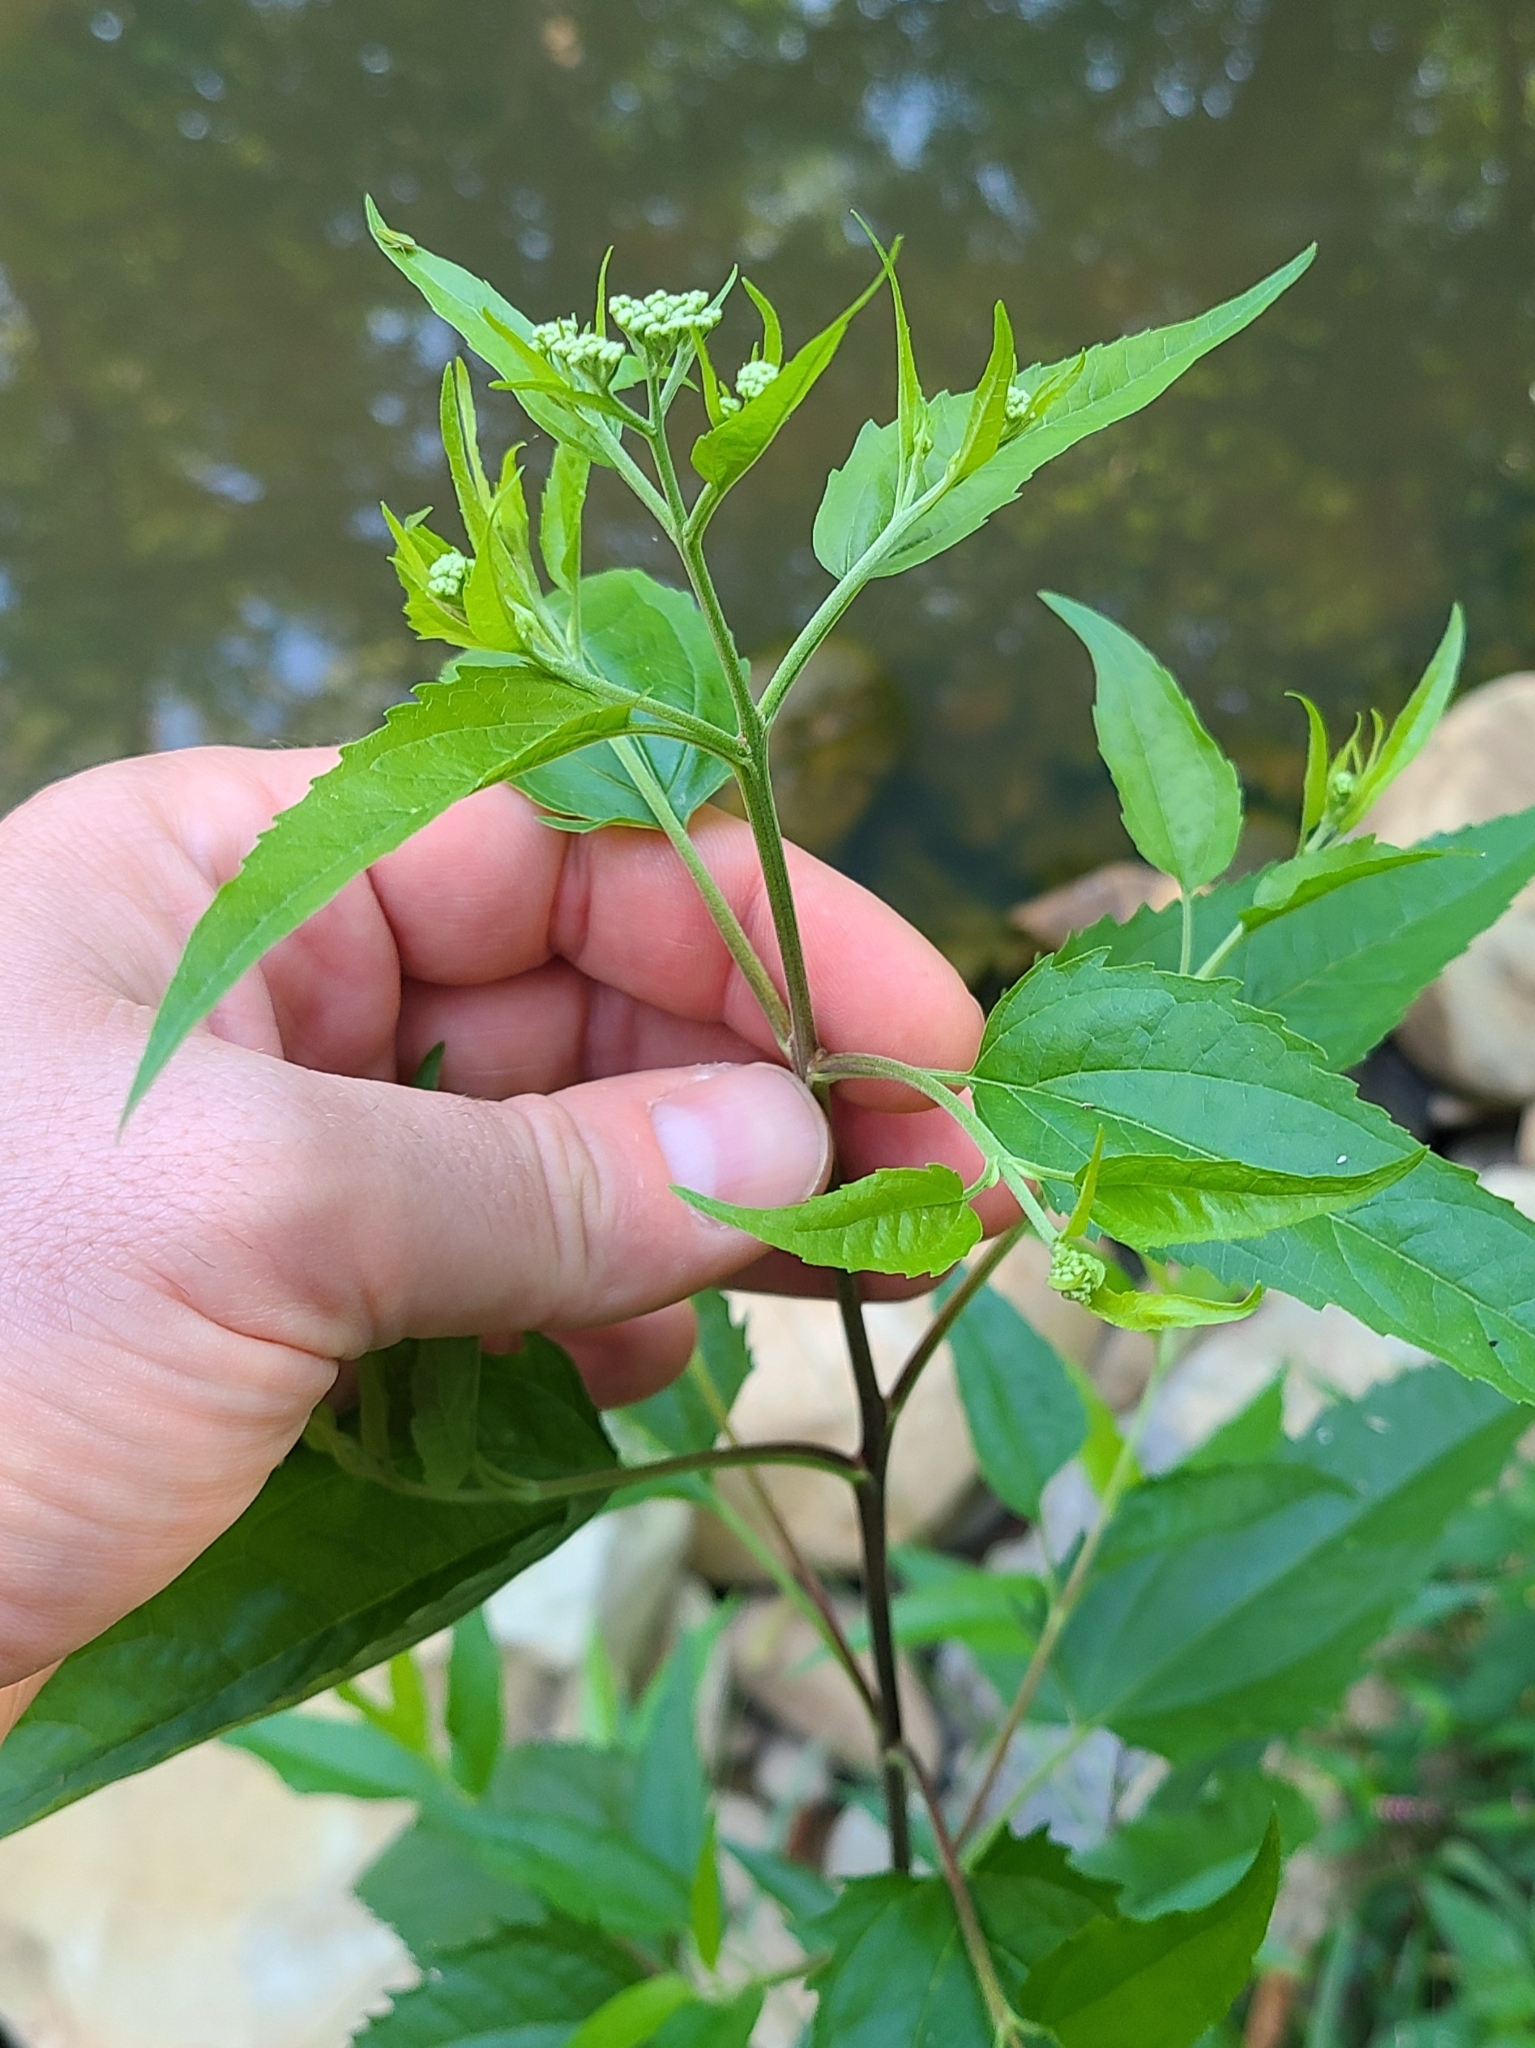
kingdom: Plantae
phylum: Tracheophyta
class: Magnoliopsida
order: Asterales
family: Asteraceae
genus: Eupatorium
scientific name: Eupatorium serotinum
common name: Late boneset
